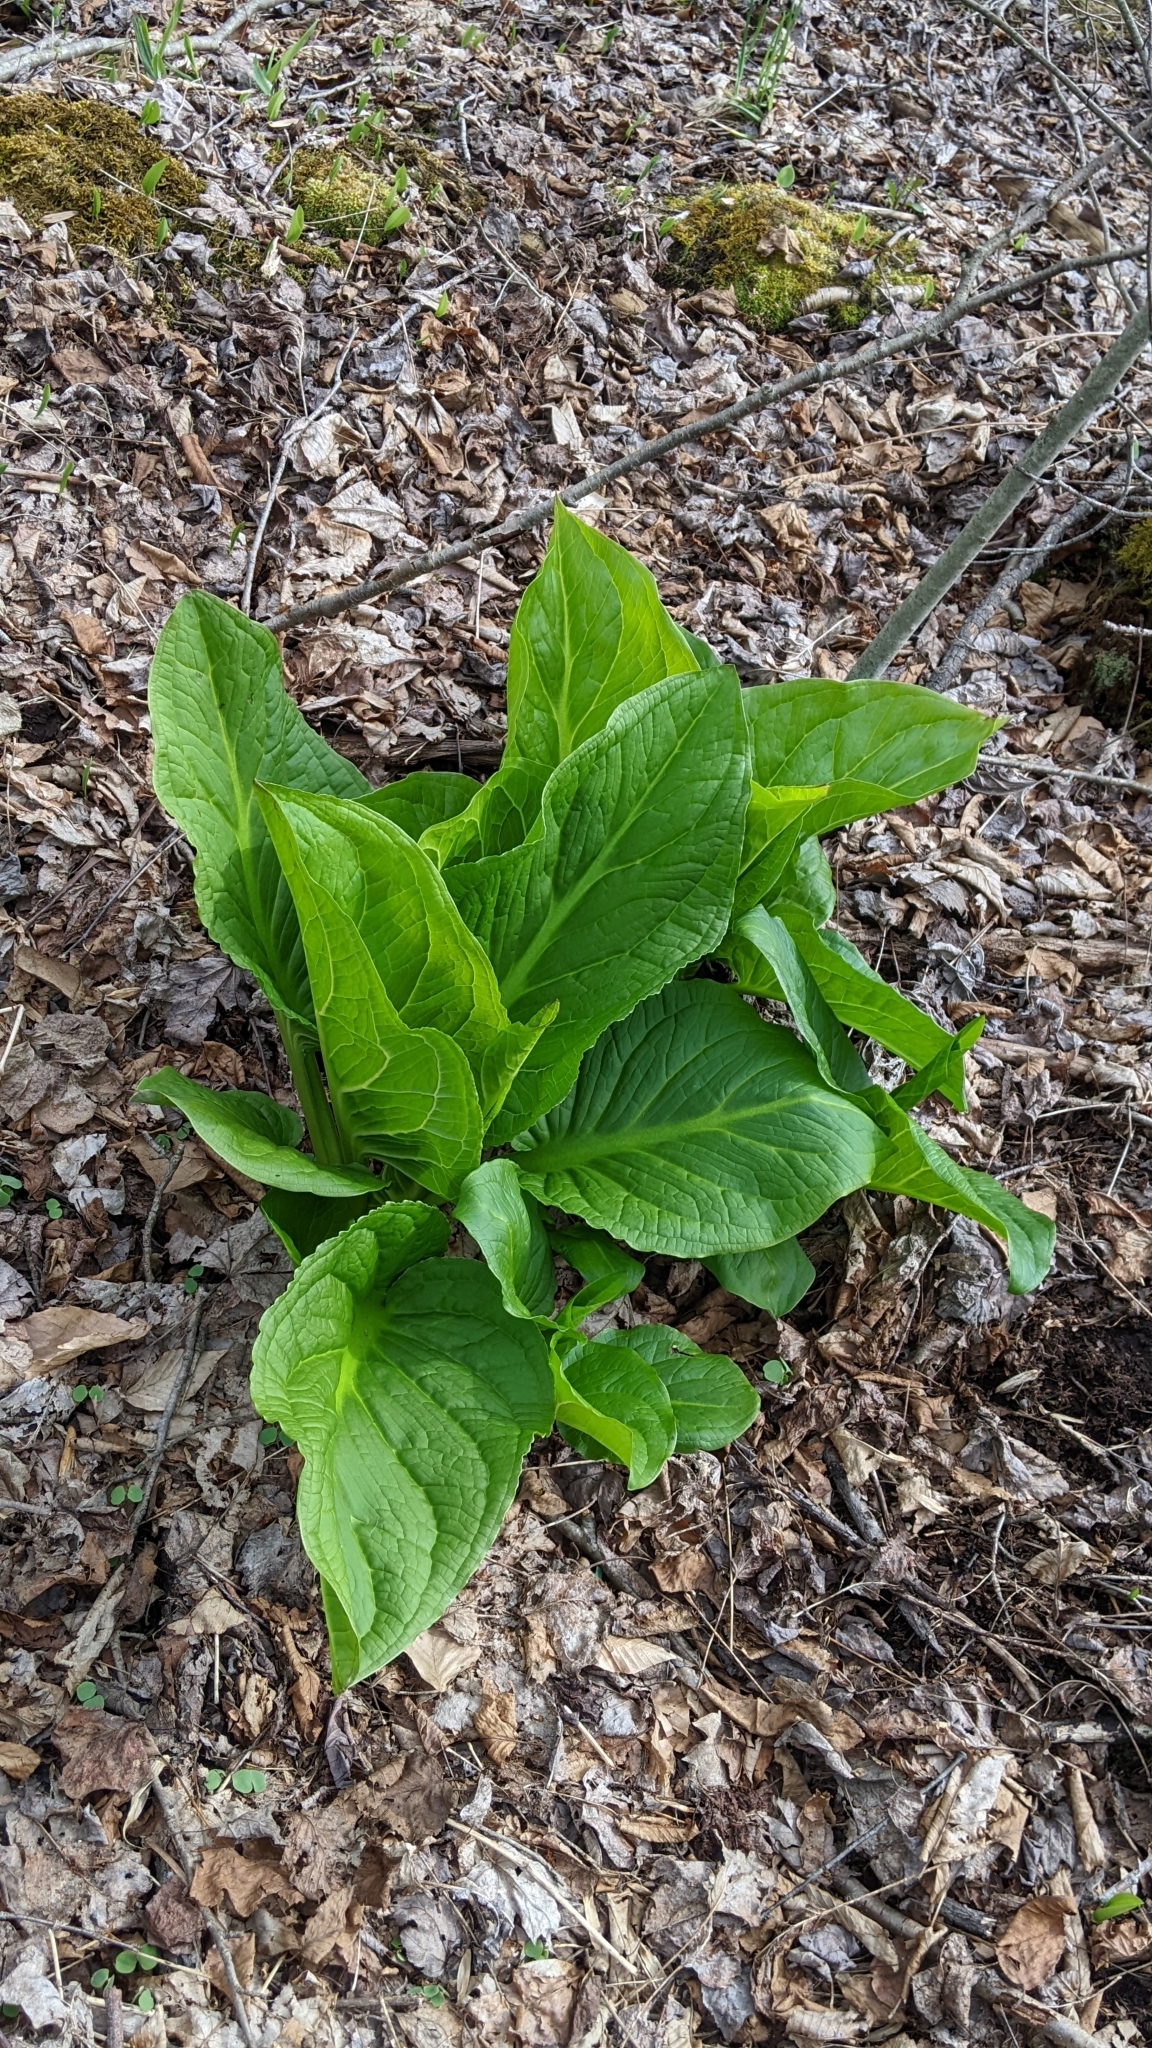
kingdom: Plantae
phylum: Tracheophyta
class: Liliopsida
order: Alismatales
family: Araceae
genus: Symplocarpus
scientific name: Symplocarpus foetidus
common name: Eastern skunk cabbage
